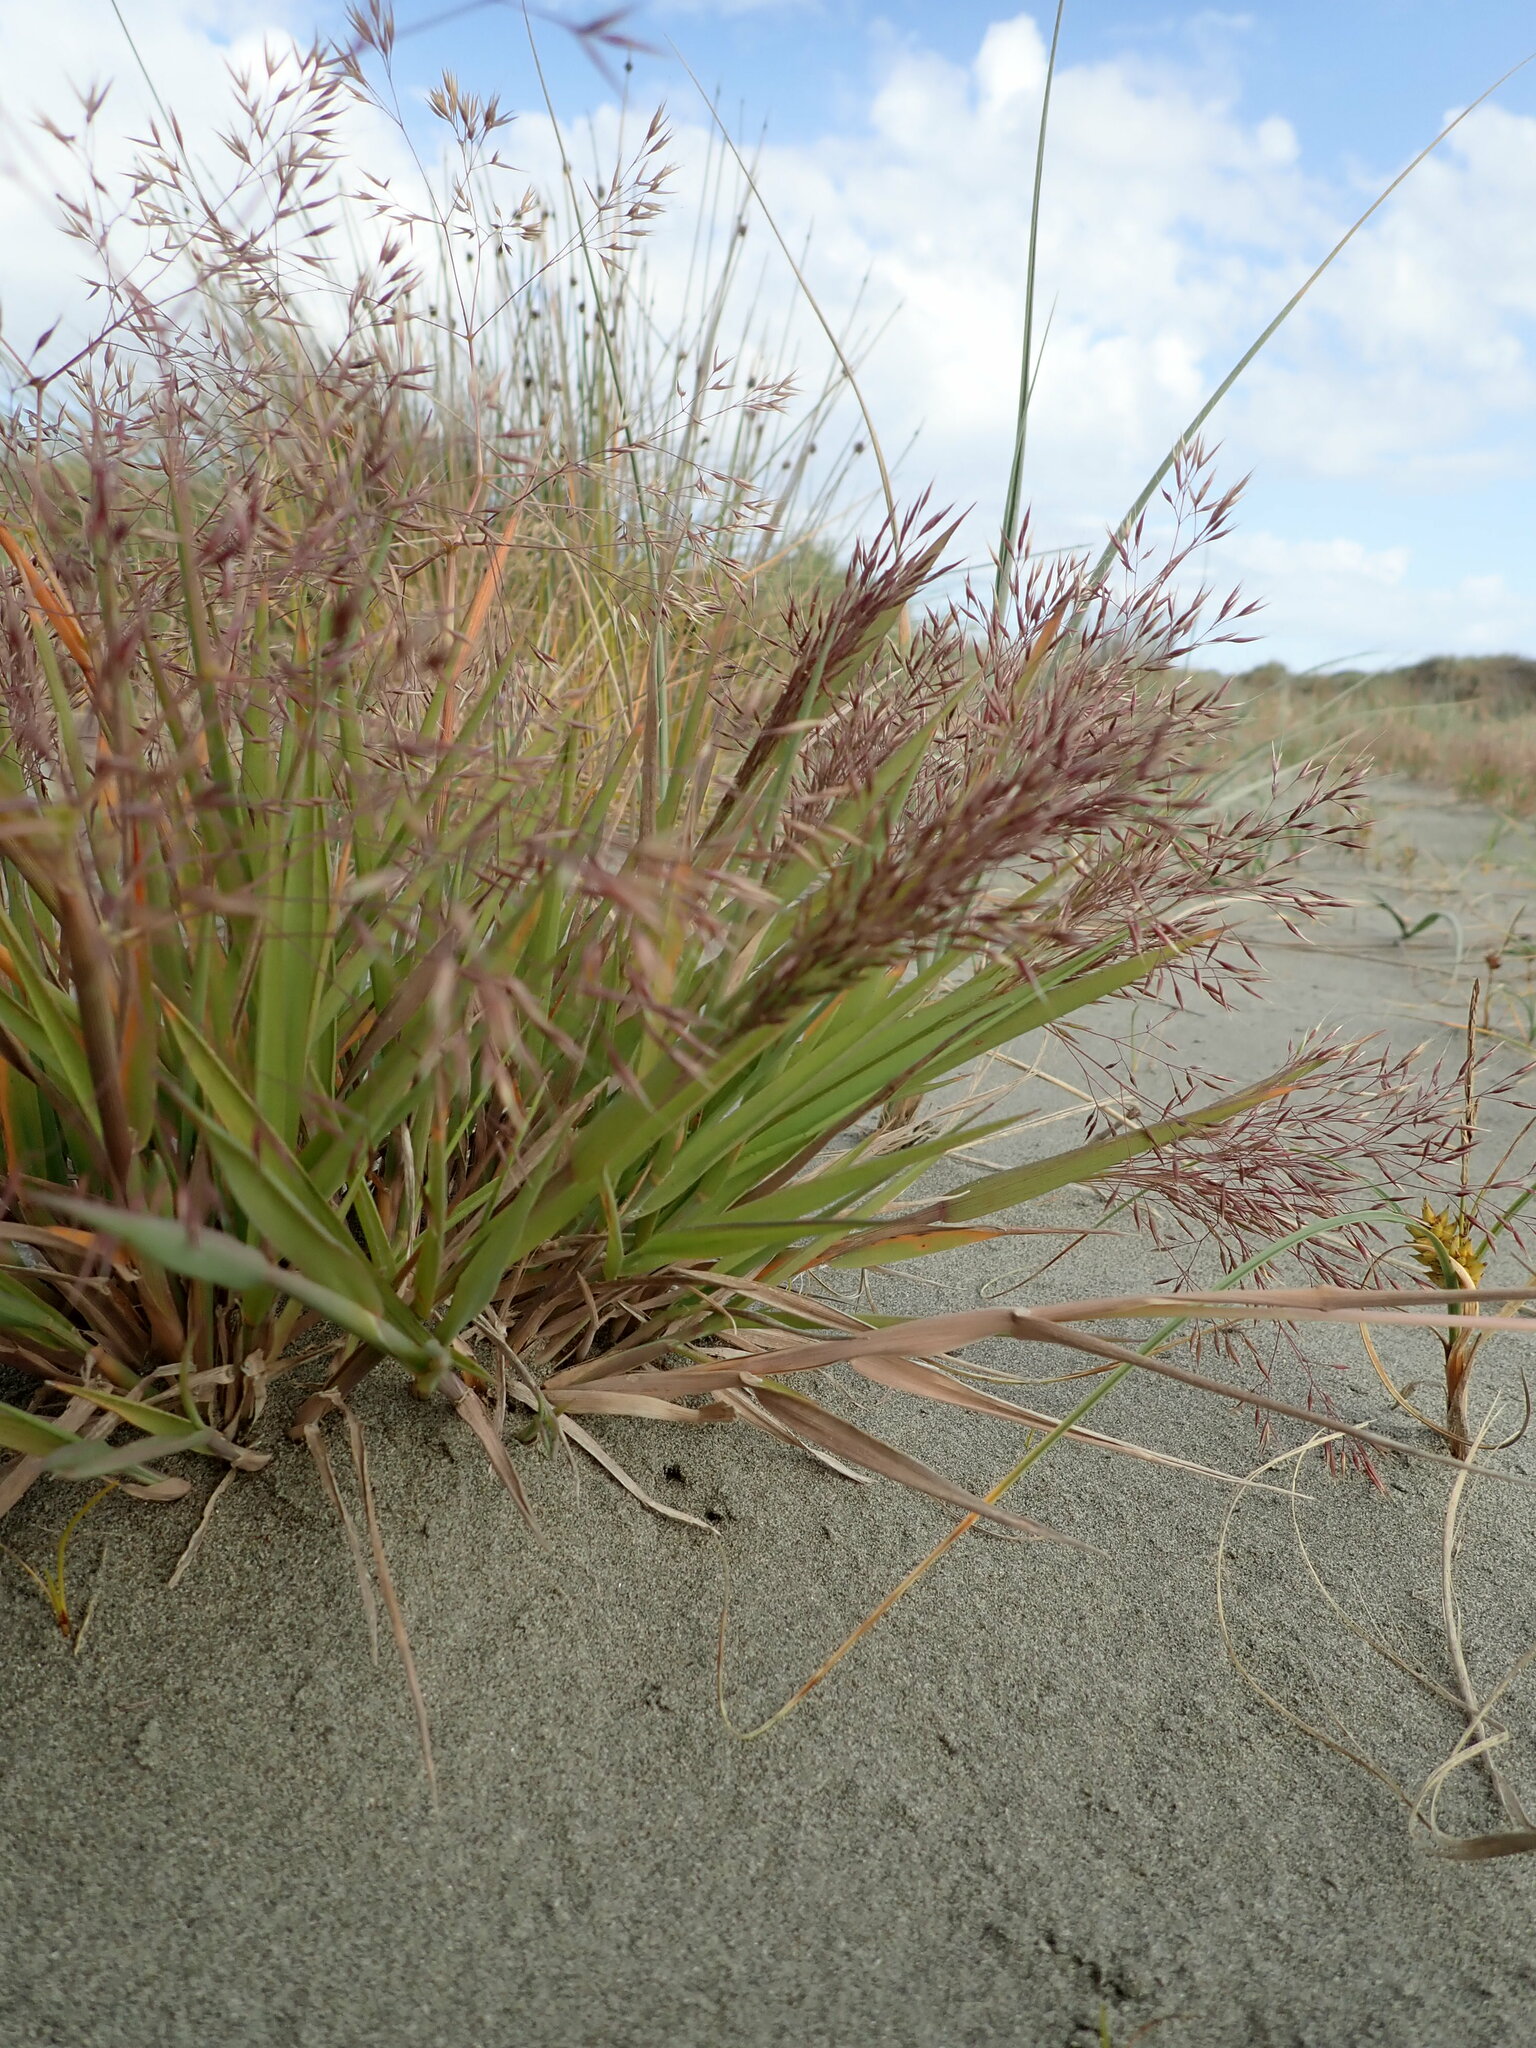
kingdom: Plantae
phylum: Tracheophyta
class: Liliopsida
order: Poales
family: Poaceae
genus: Lachnagrostis
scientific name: Lachnagrostis billardierei
